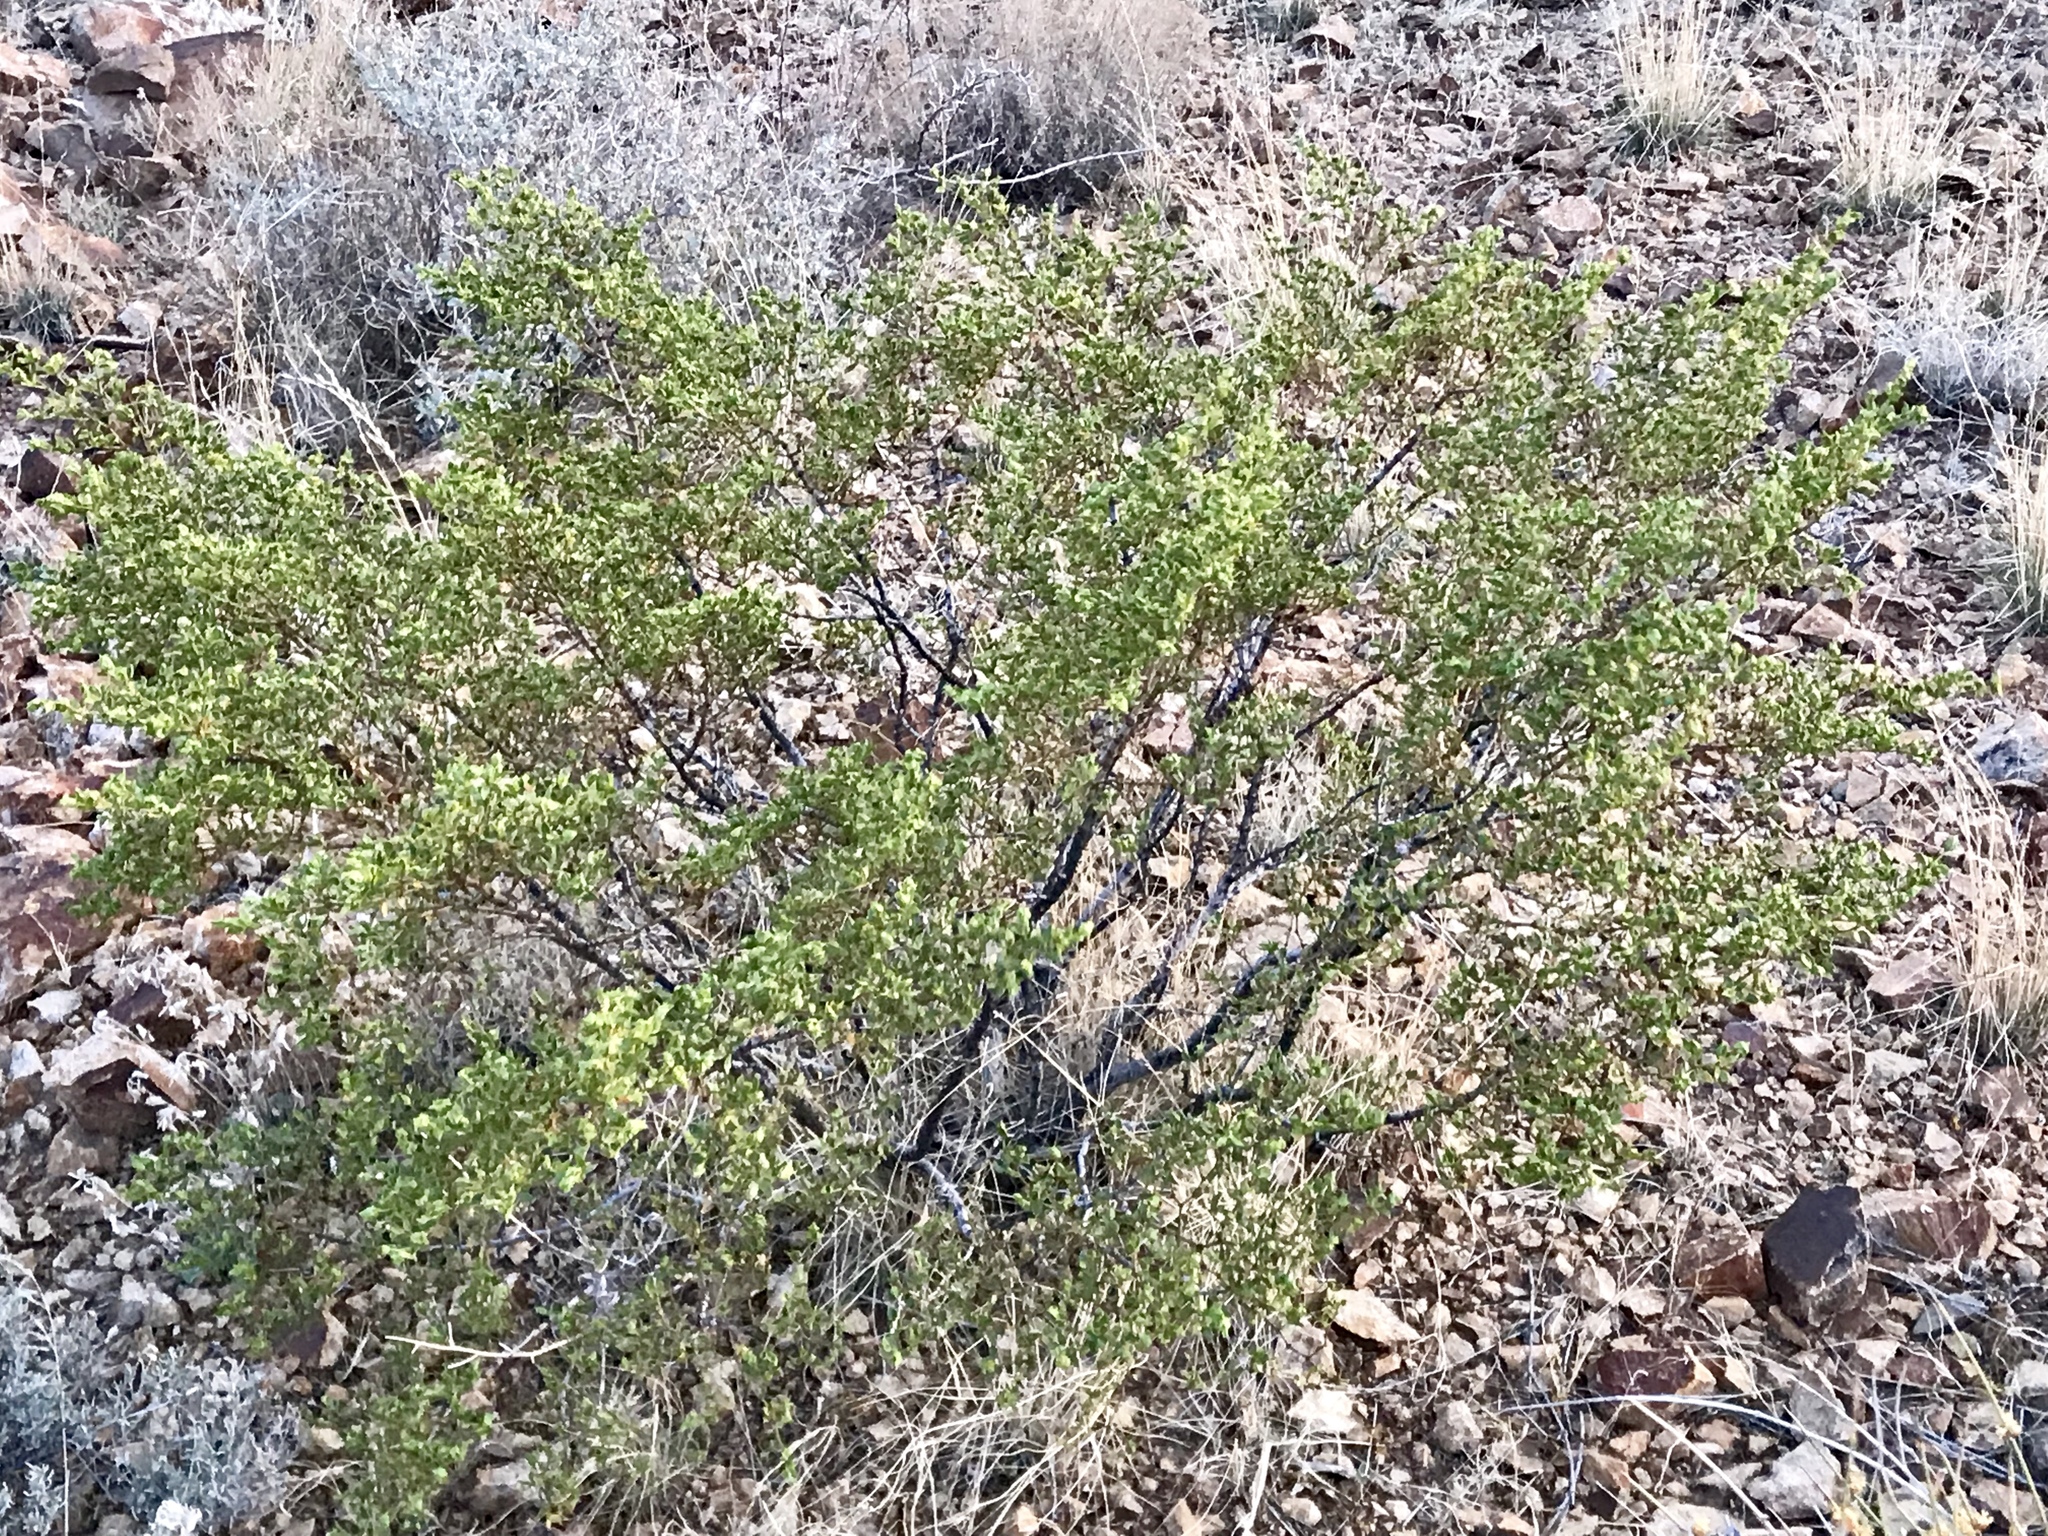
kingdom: Plantae
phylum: Tracheophyta
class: Magnoliopsida
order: Zygophyllales
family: Zygophyllaceae
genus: Larrea
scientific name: Larrea tridentata
